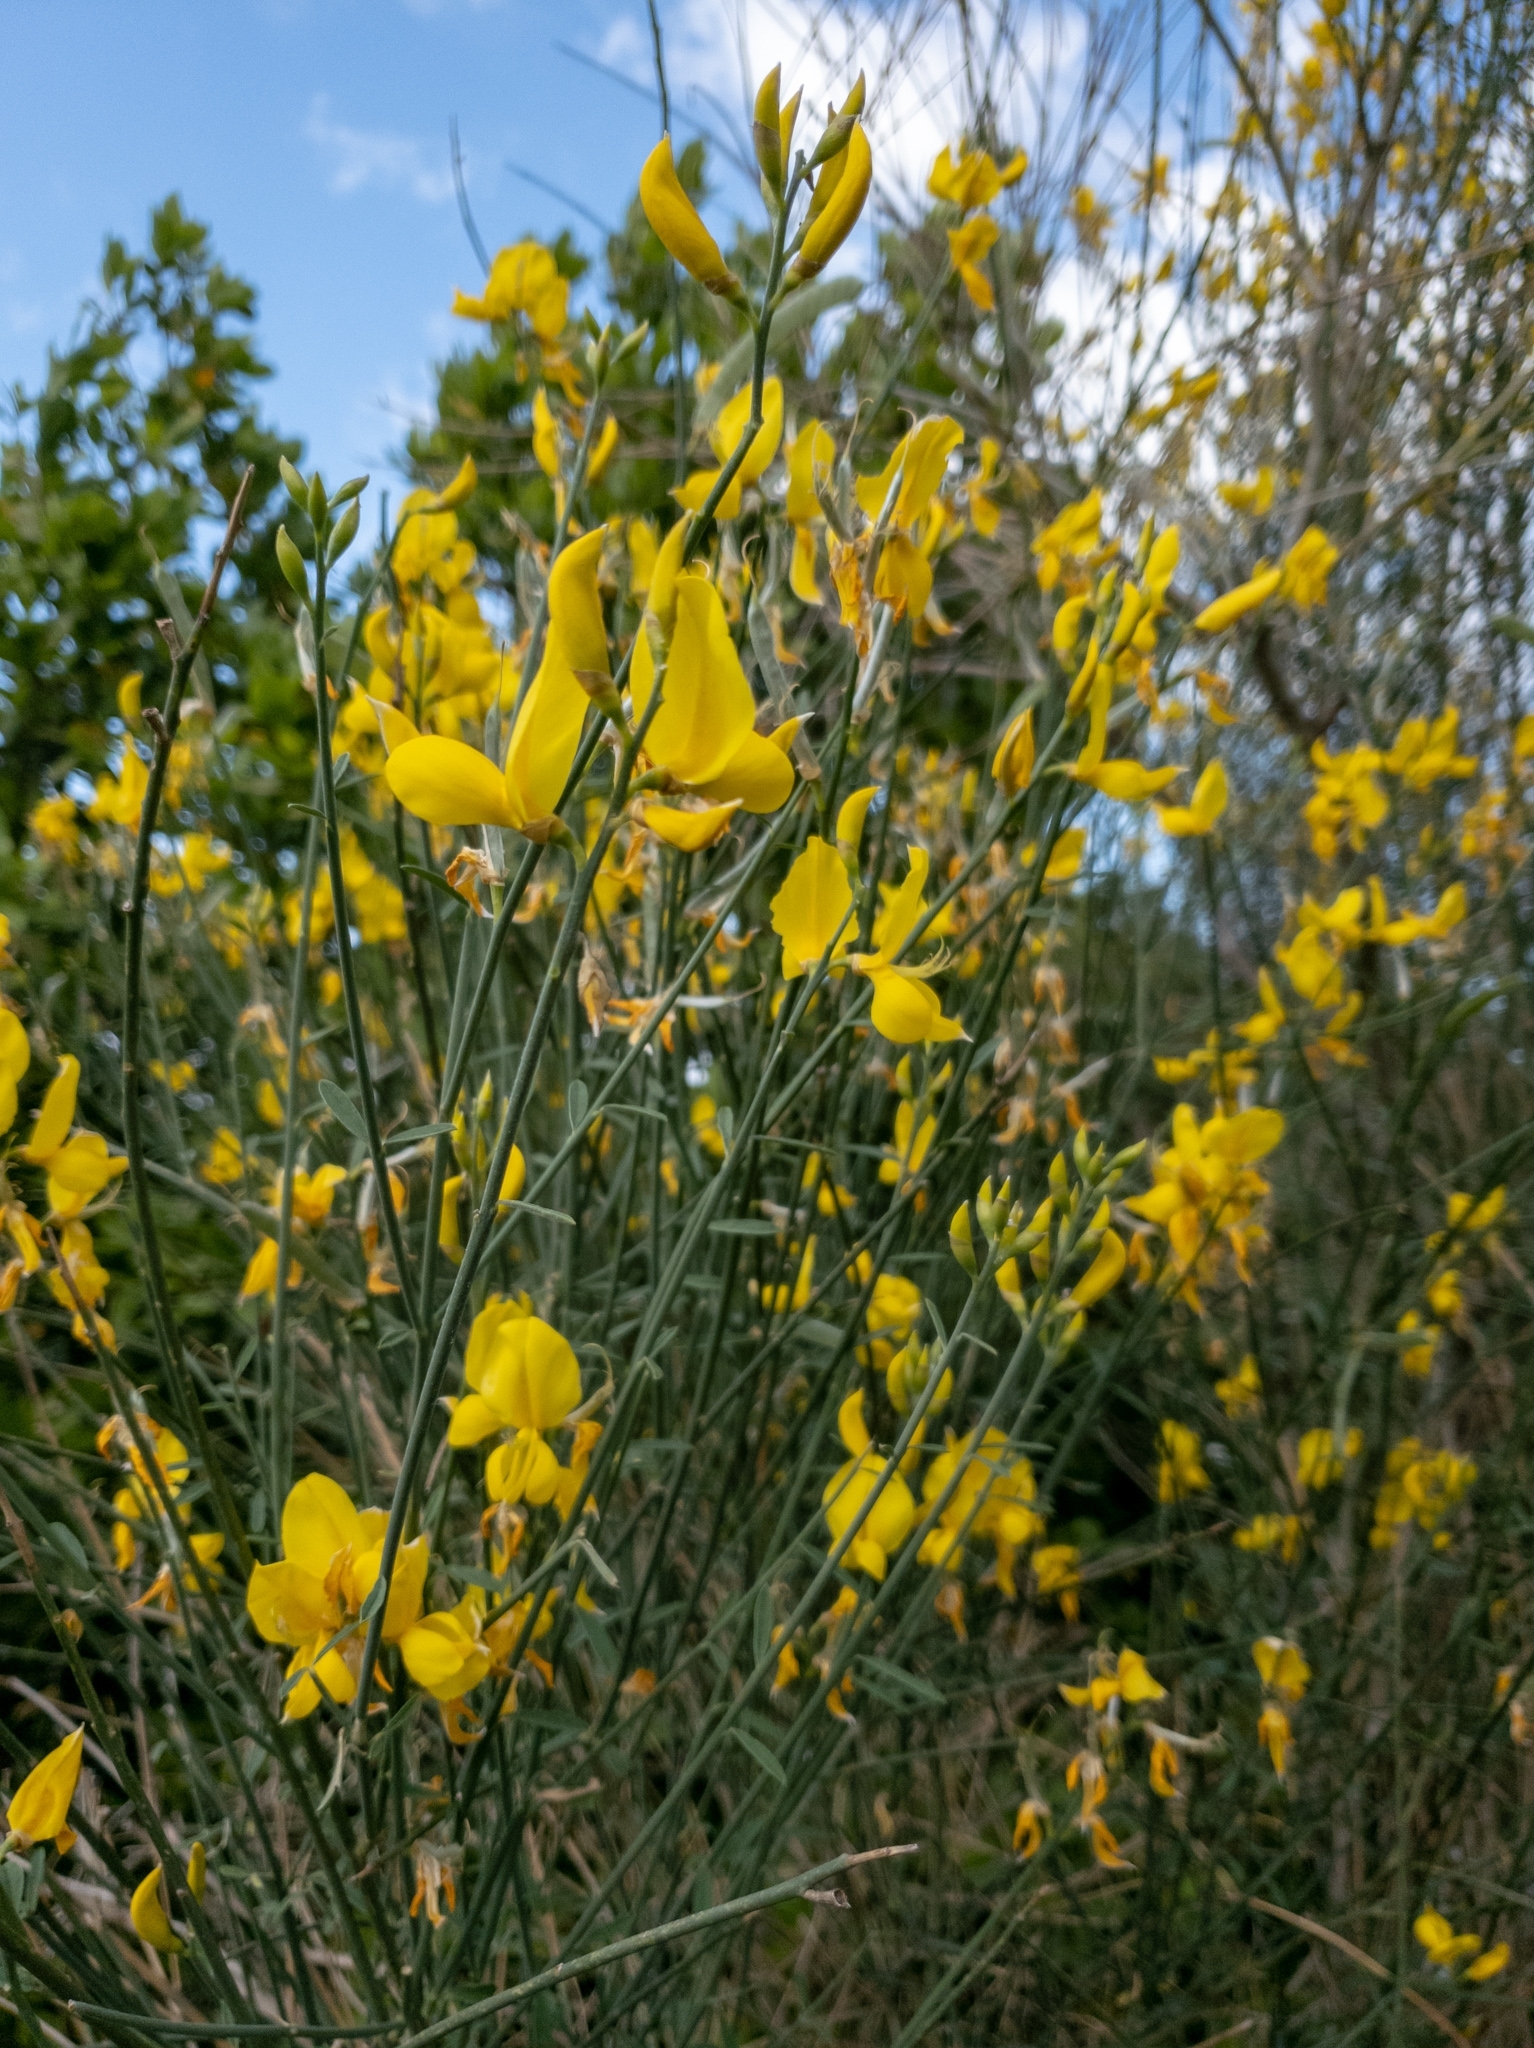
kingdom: Plantae
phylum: Tracheophyta
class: Magnoliopsida
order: Fabales
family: Fabaceae
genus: Spartium
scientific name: Spartium junceum
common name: Spanish broom
